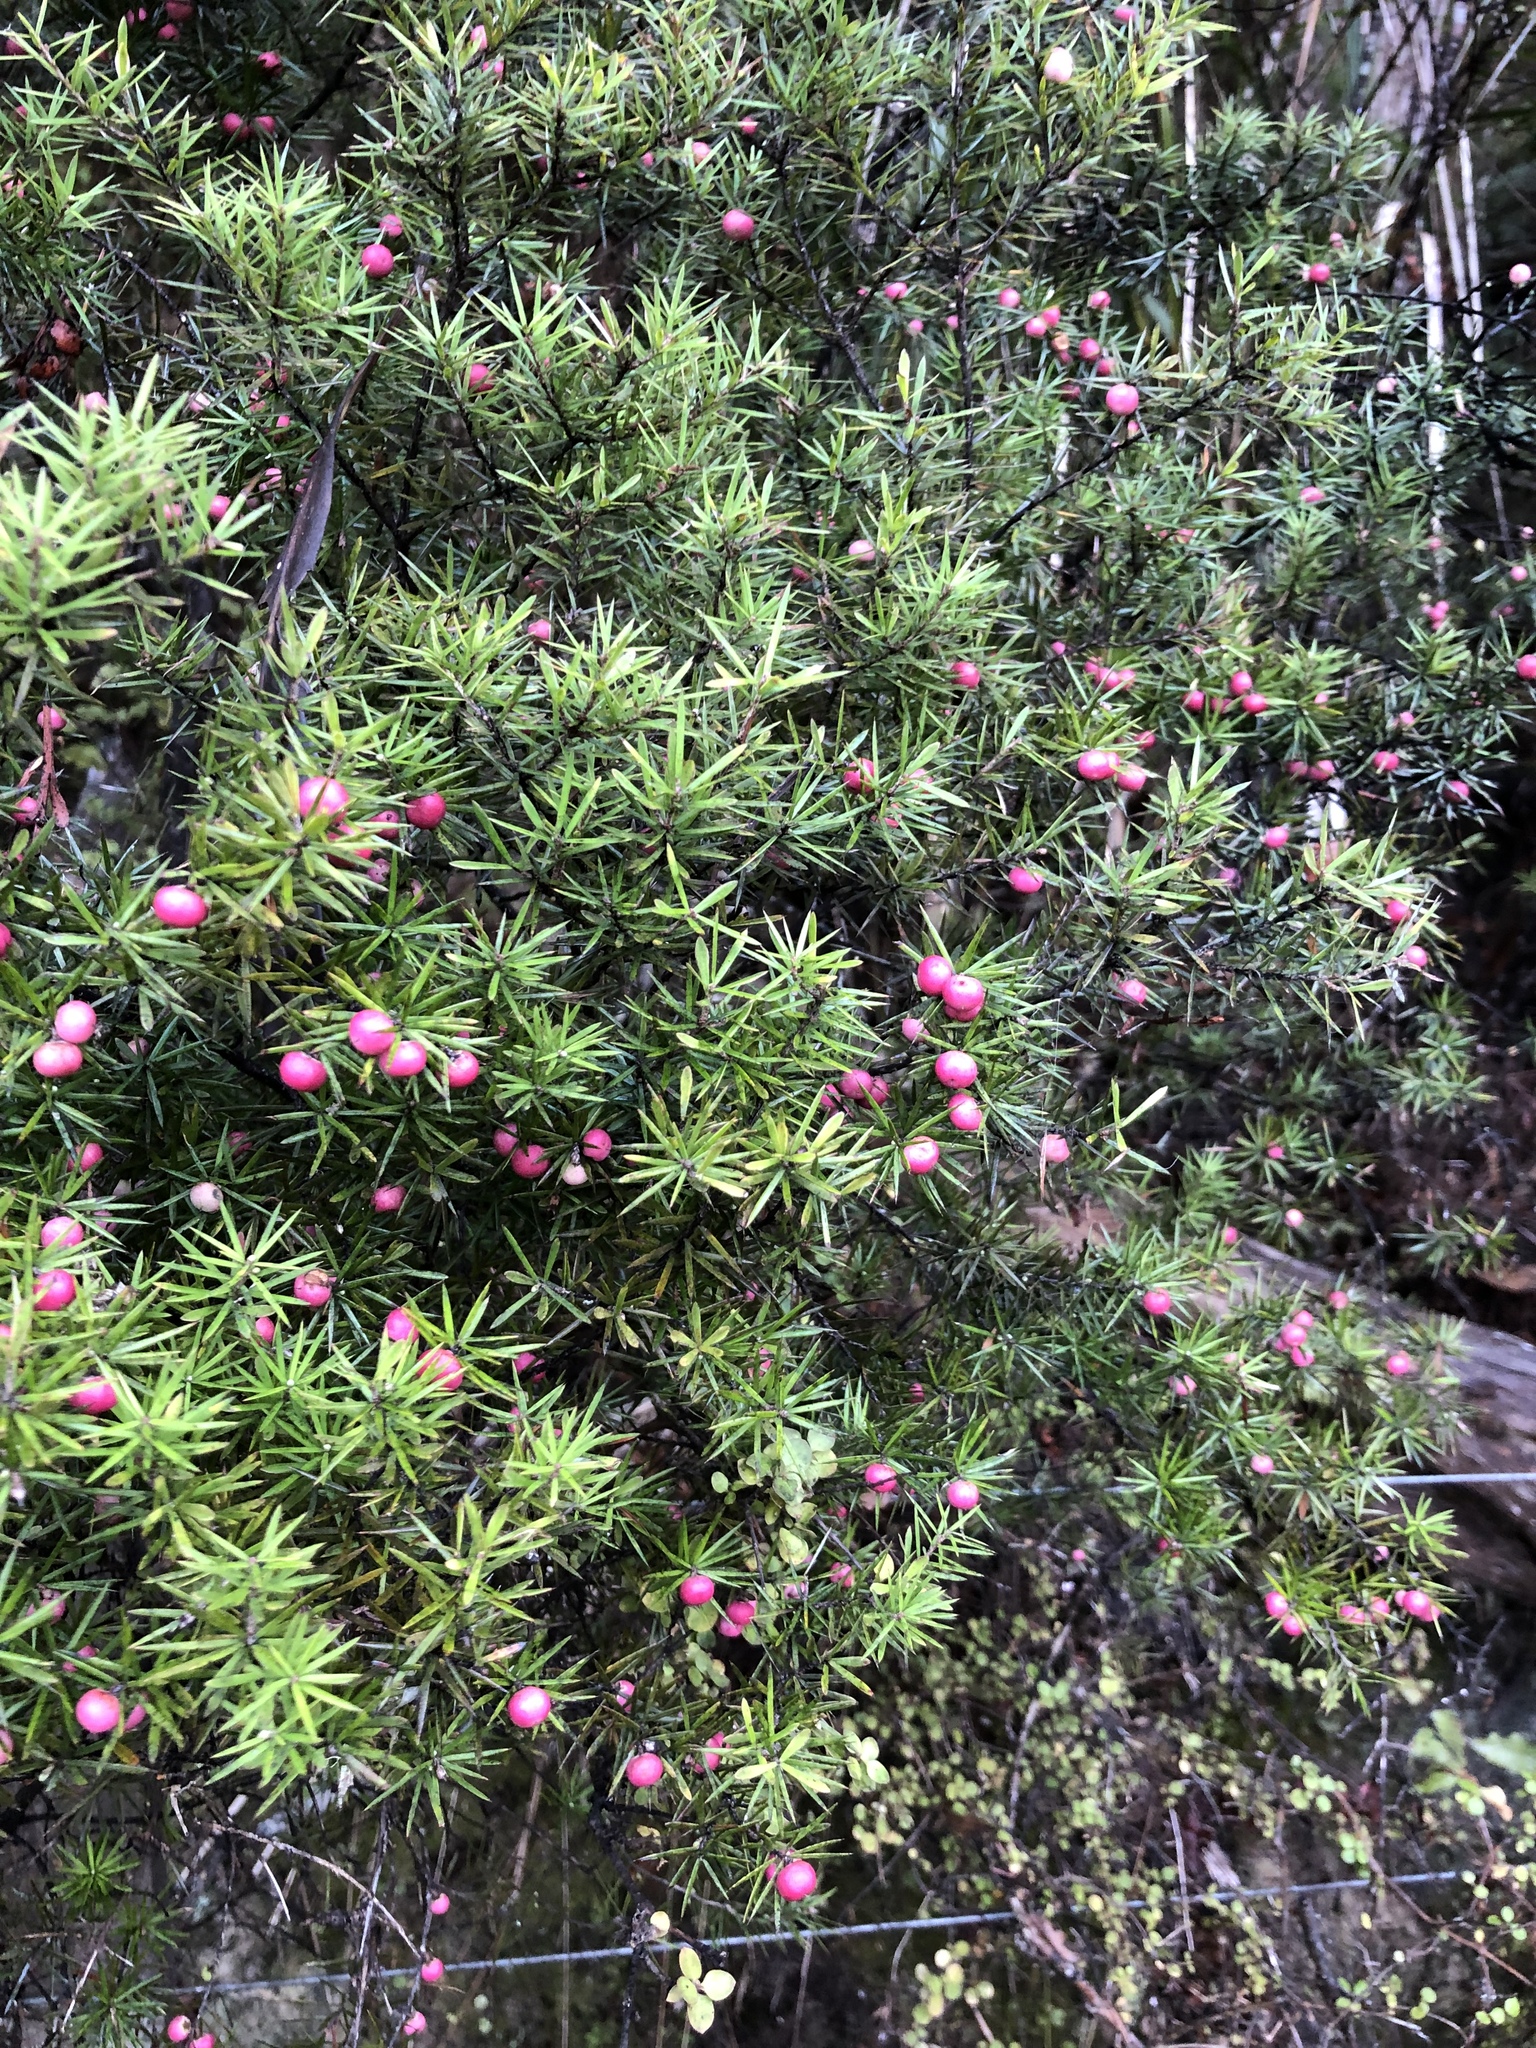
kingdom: Plantae
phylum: Tracheophyta
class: Magnoliopsida
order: Ericales
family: Ericaceae
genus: Leptecophylla
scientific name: Leptecophylla juniperina
